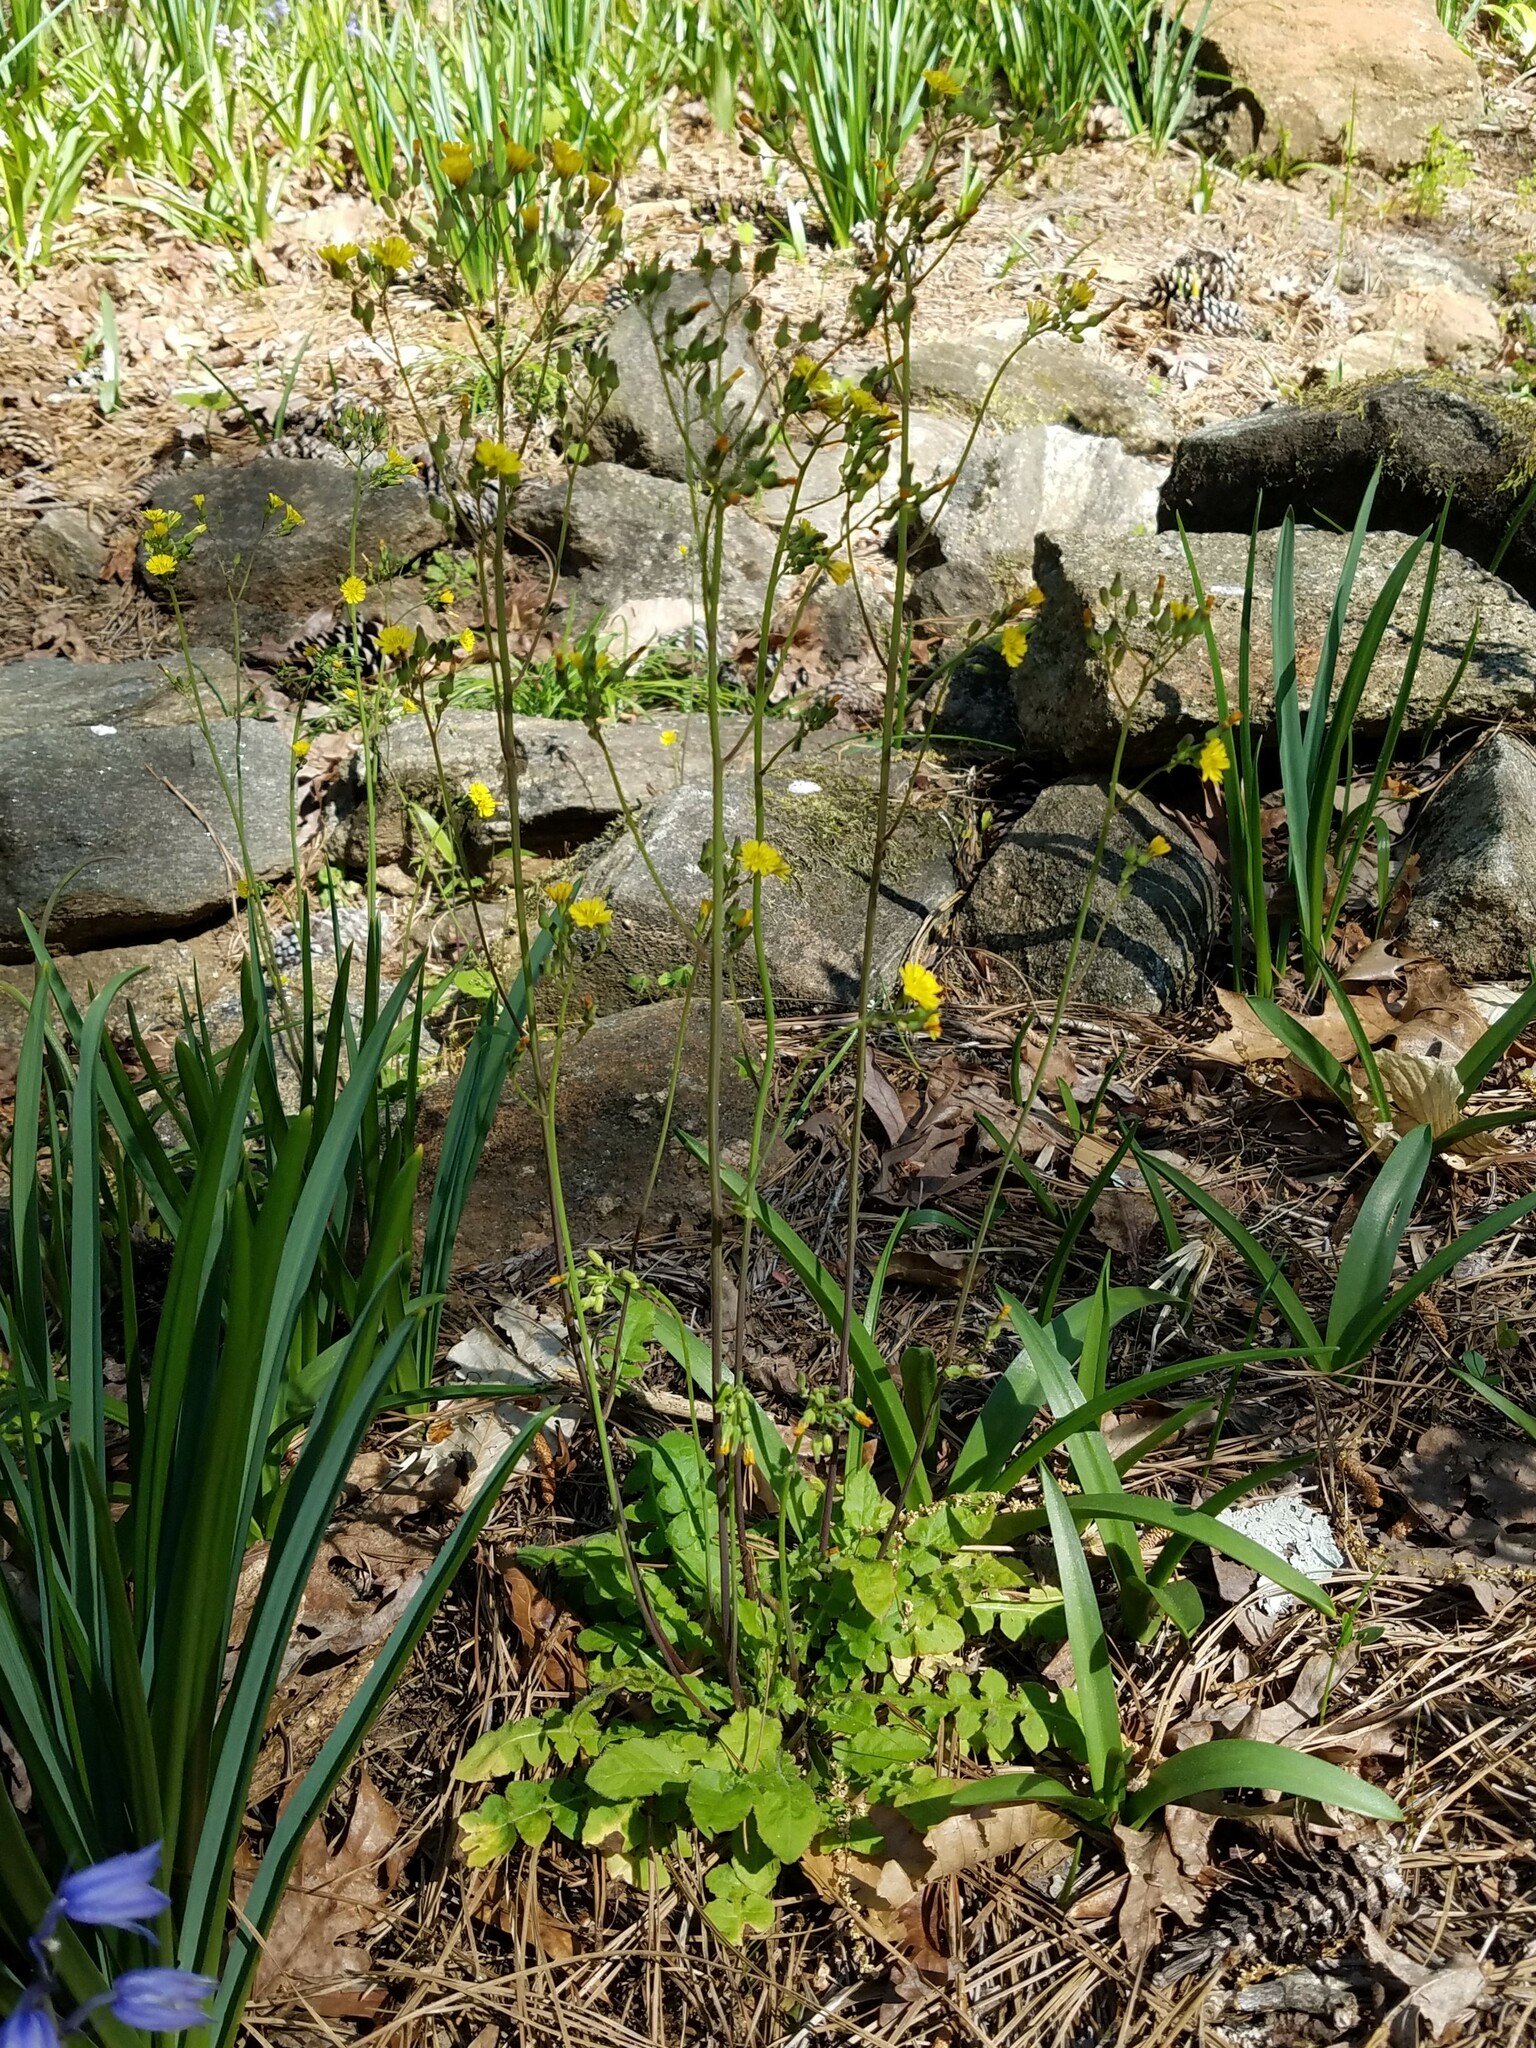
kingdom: Plantae
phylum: Tracheophyta
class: Magnoliopsida
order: Asterales
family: Asteraceae
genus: Youngia
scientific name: Youngia japonica
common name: Oriental false hawksbeard
